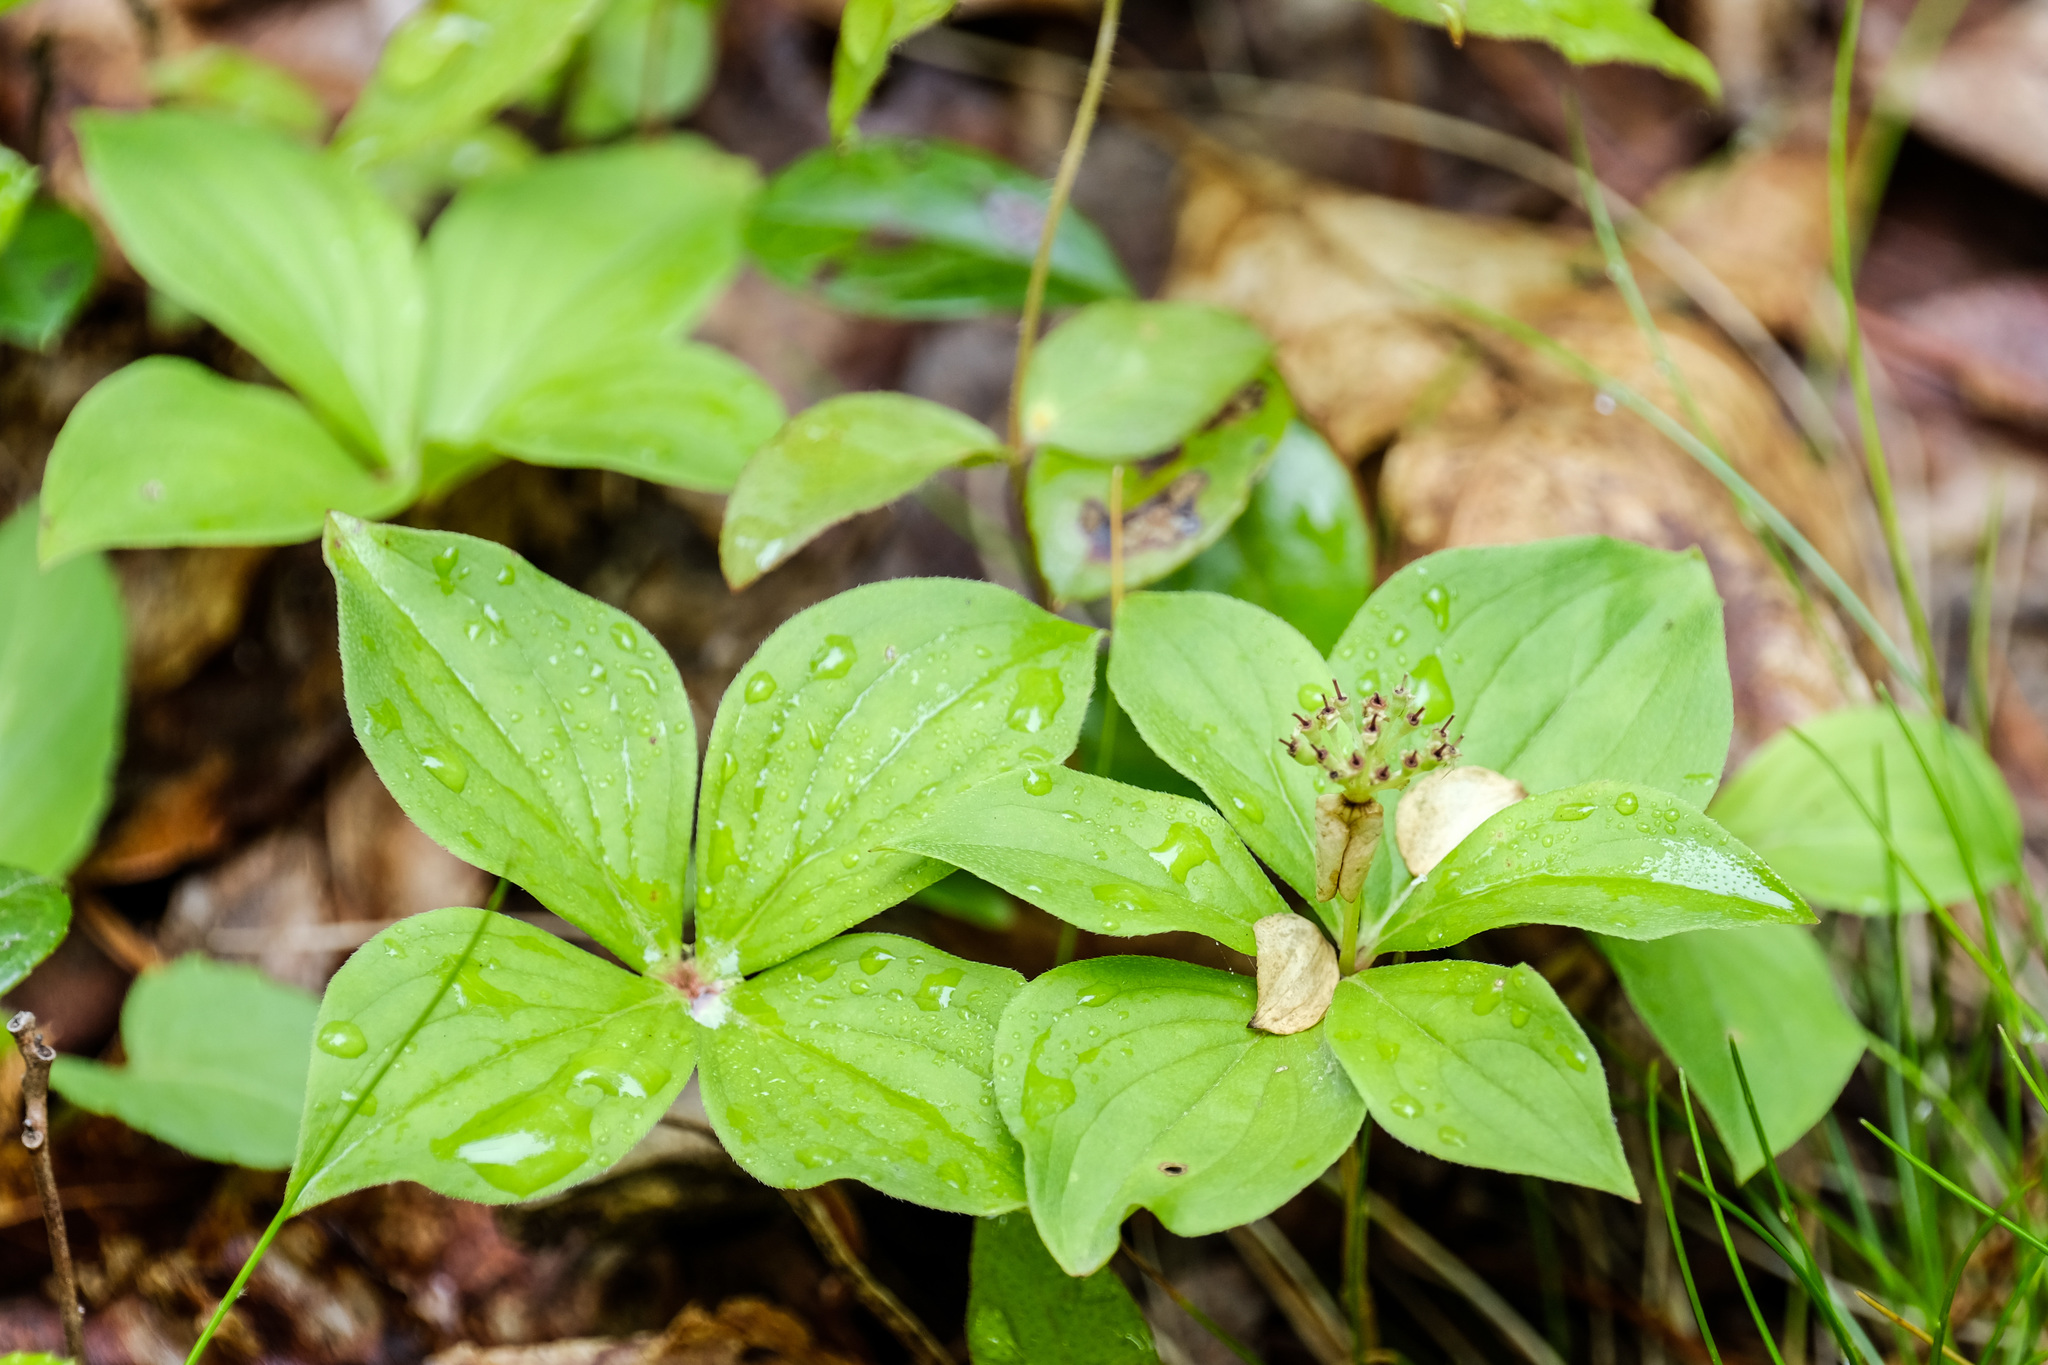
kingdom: Plantae
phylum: Tracheophyta
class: Magnoliopsida
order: Cornales
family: Cornaceae
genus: Cornus
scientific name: Cornus canadensis
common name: Creeping dogwood
